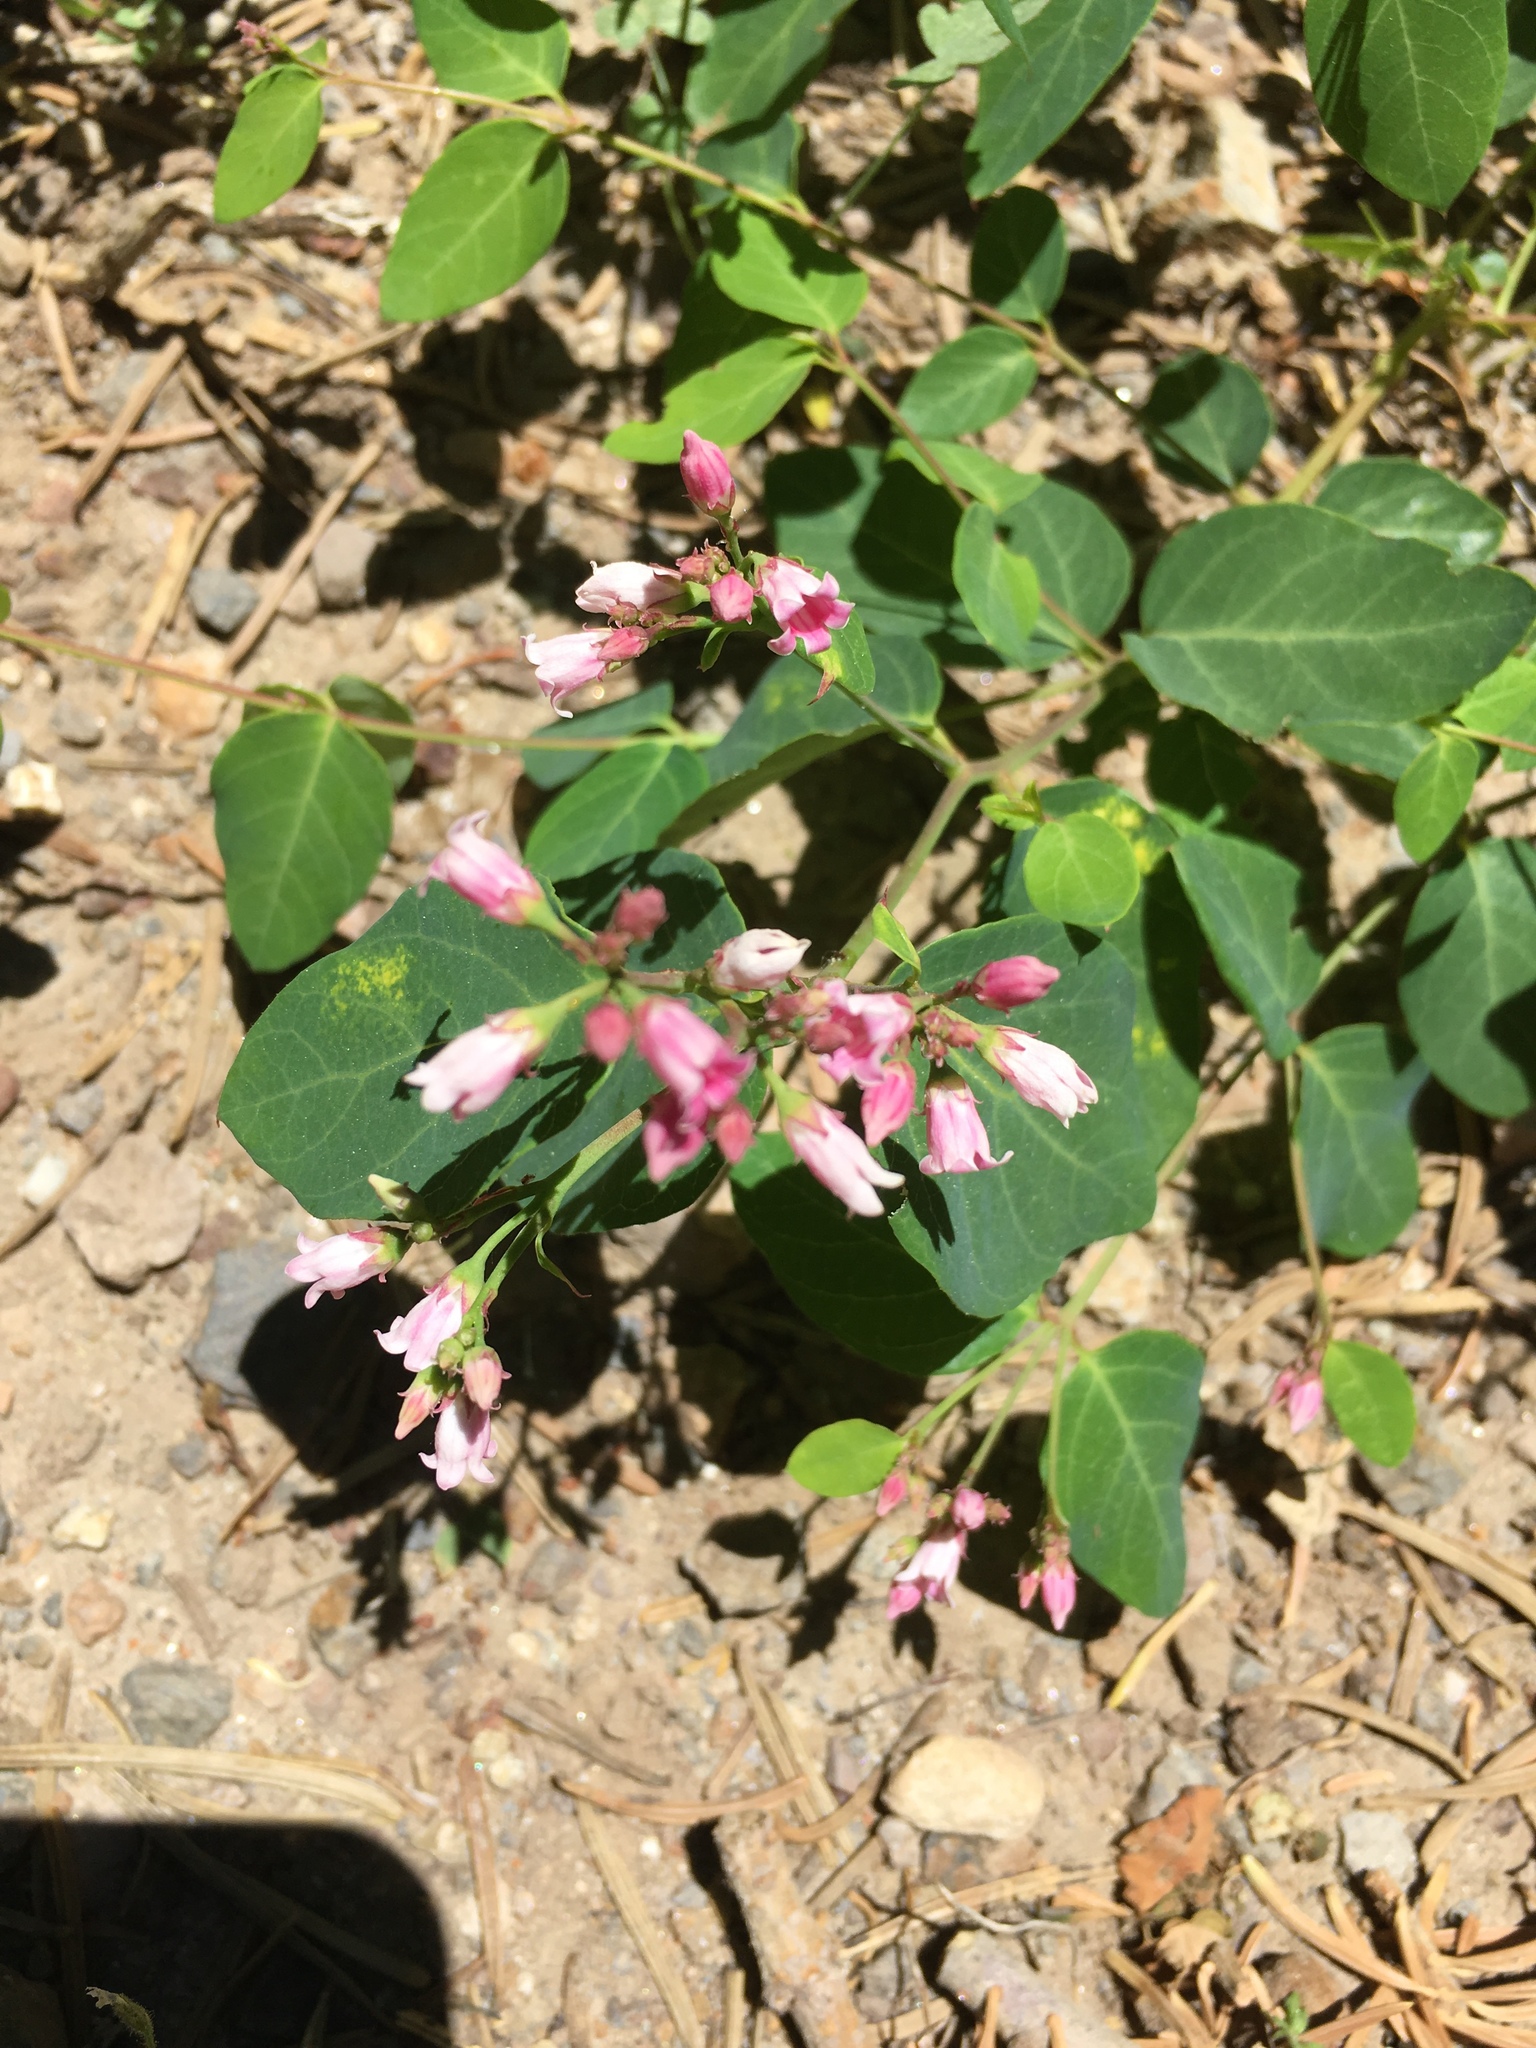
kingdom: Plantae
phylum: Tracheophyta
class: Magnoliopsida
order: Gentianales
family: Apocynaceae
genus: Apocynum
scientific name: Apocynum androsaemifolium
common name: Spreading dogbane
